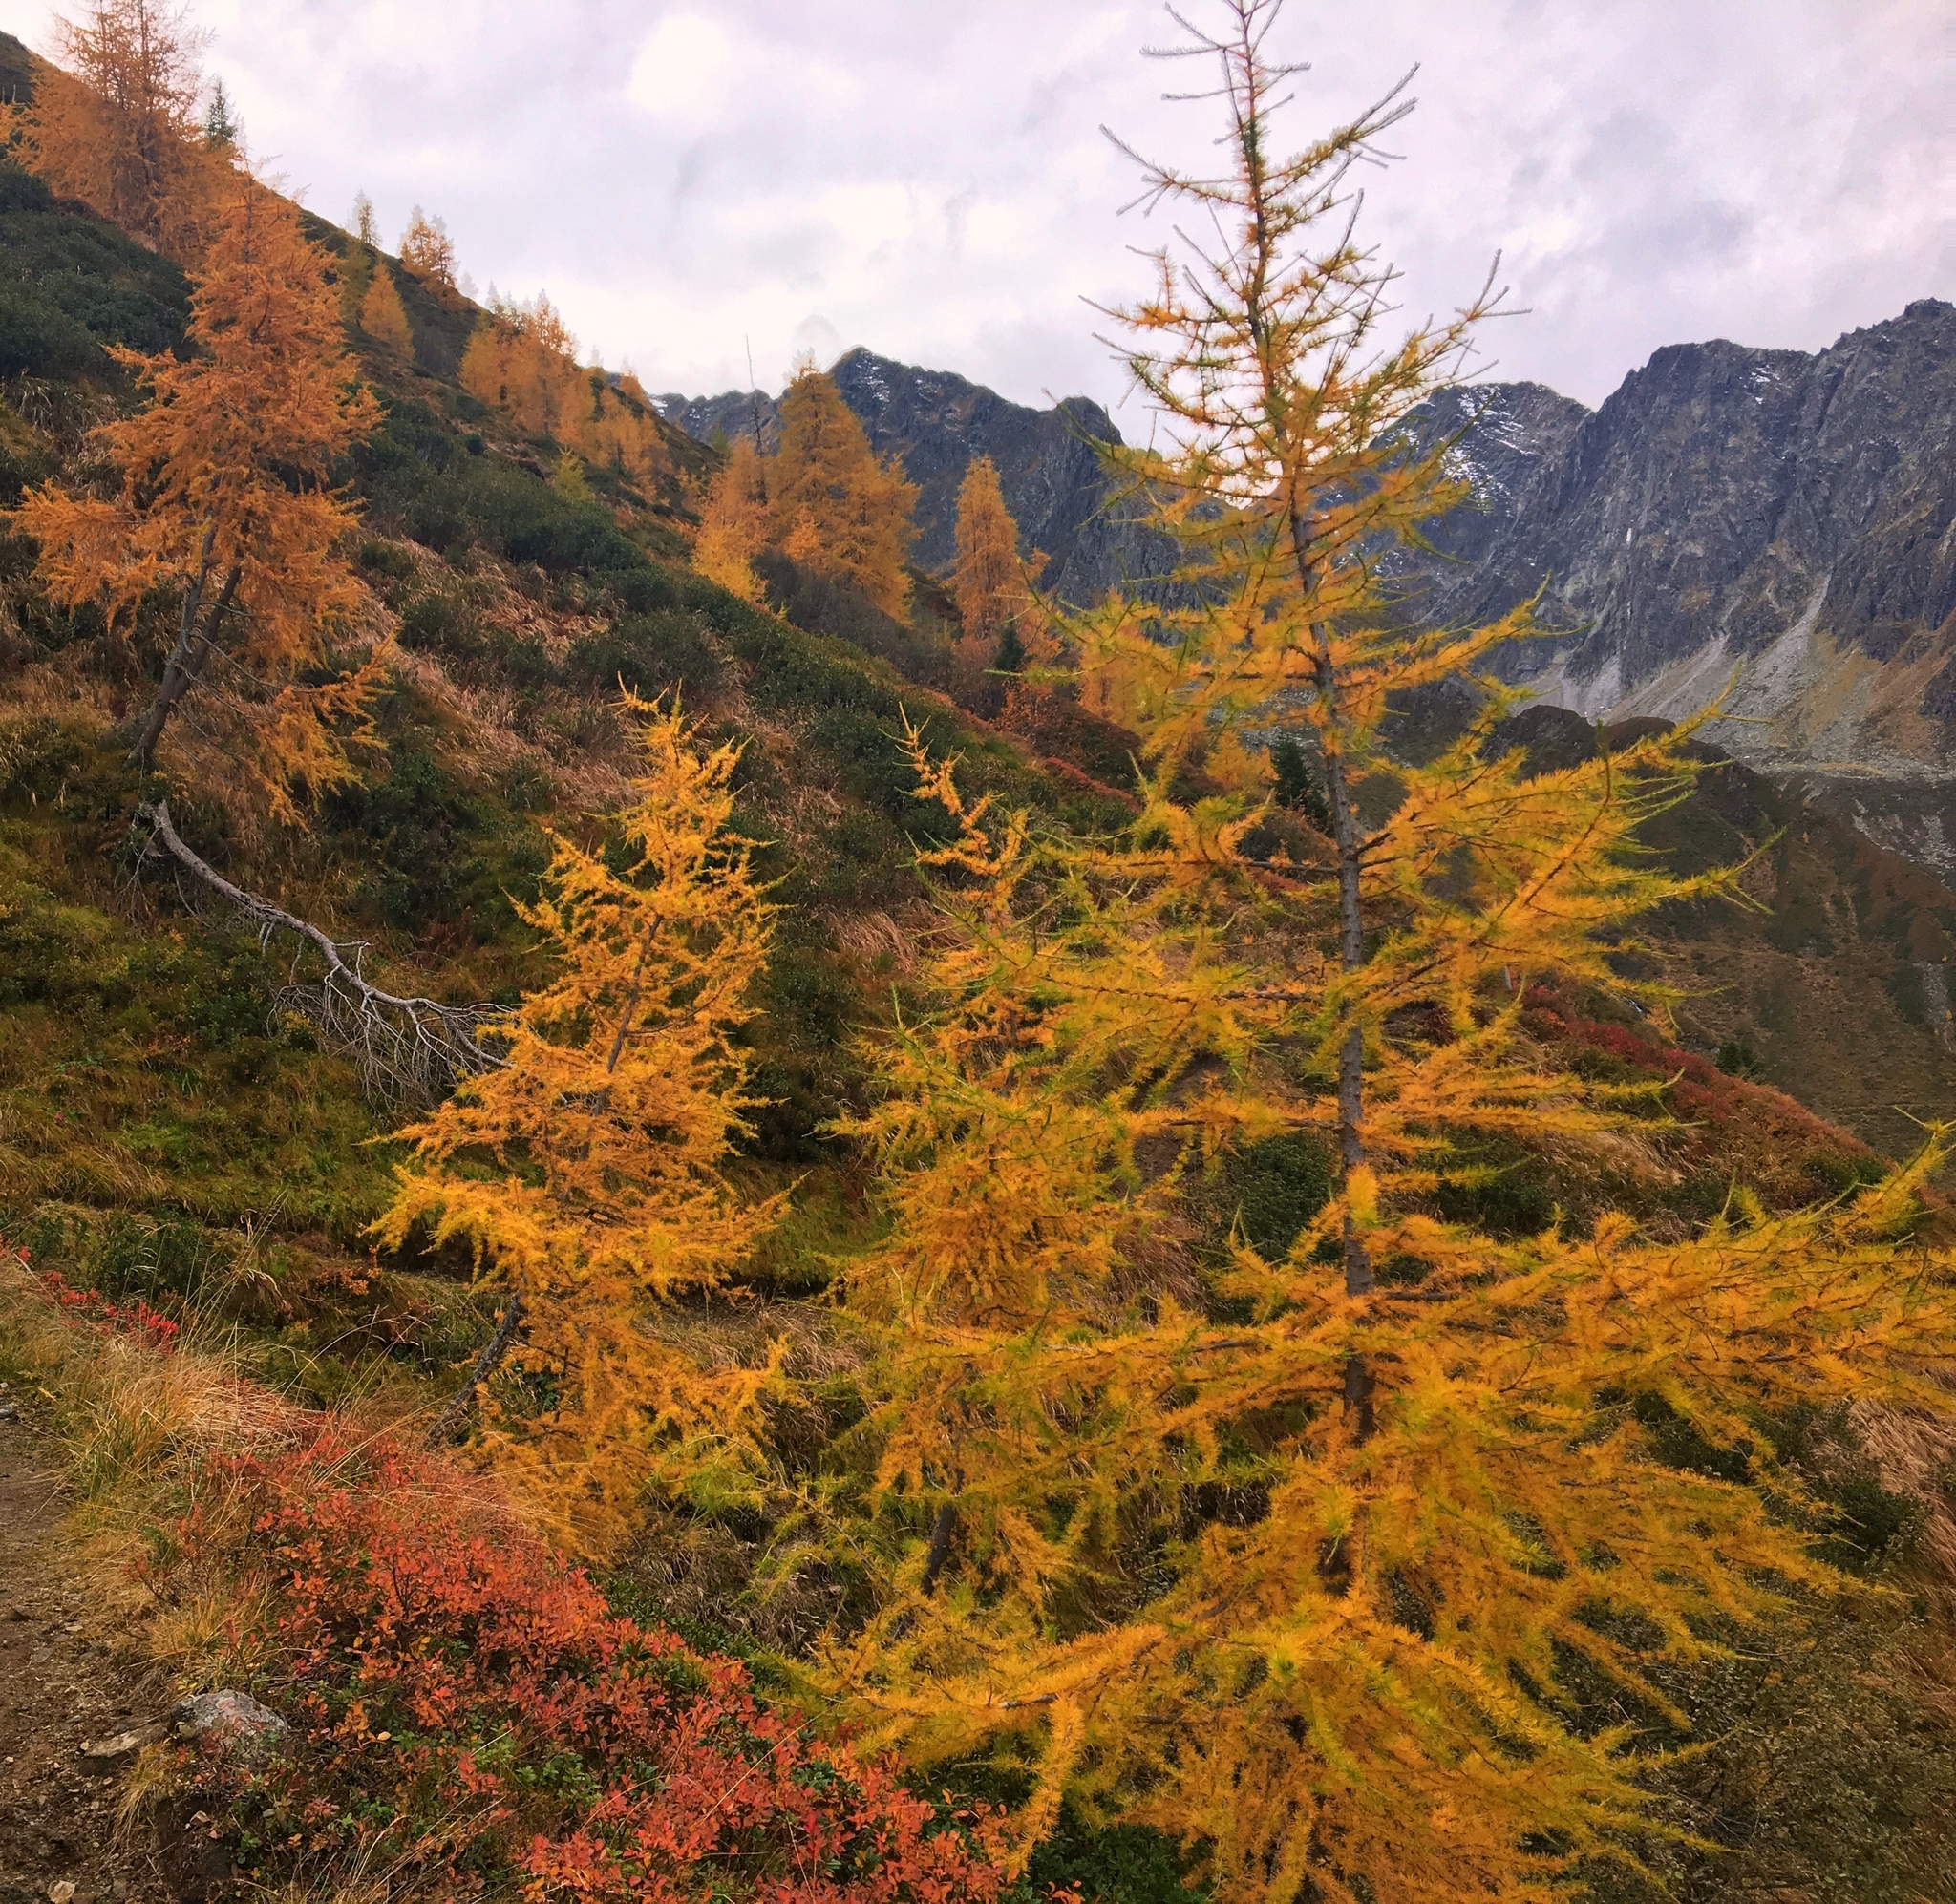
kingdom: Plantae
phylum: Tracheophyta
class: Pinopsida
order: Pinales
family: Pinaceae
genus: Larix
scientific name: Larix decidua
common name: European larch
